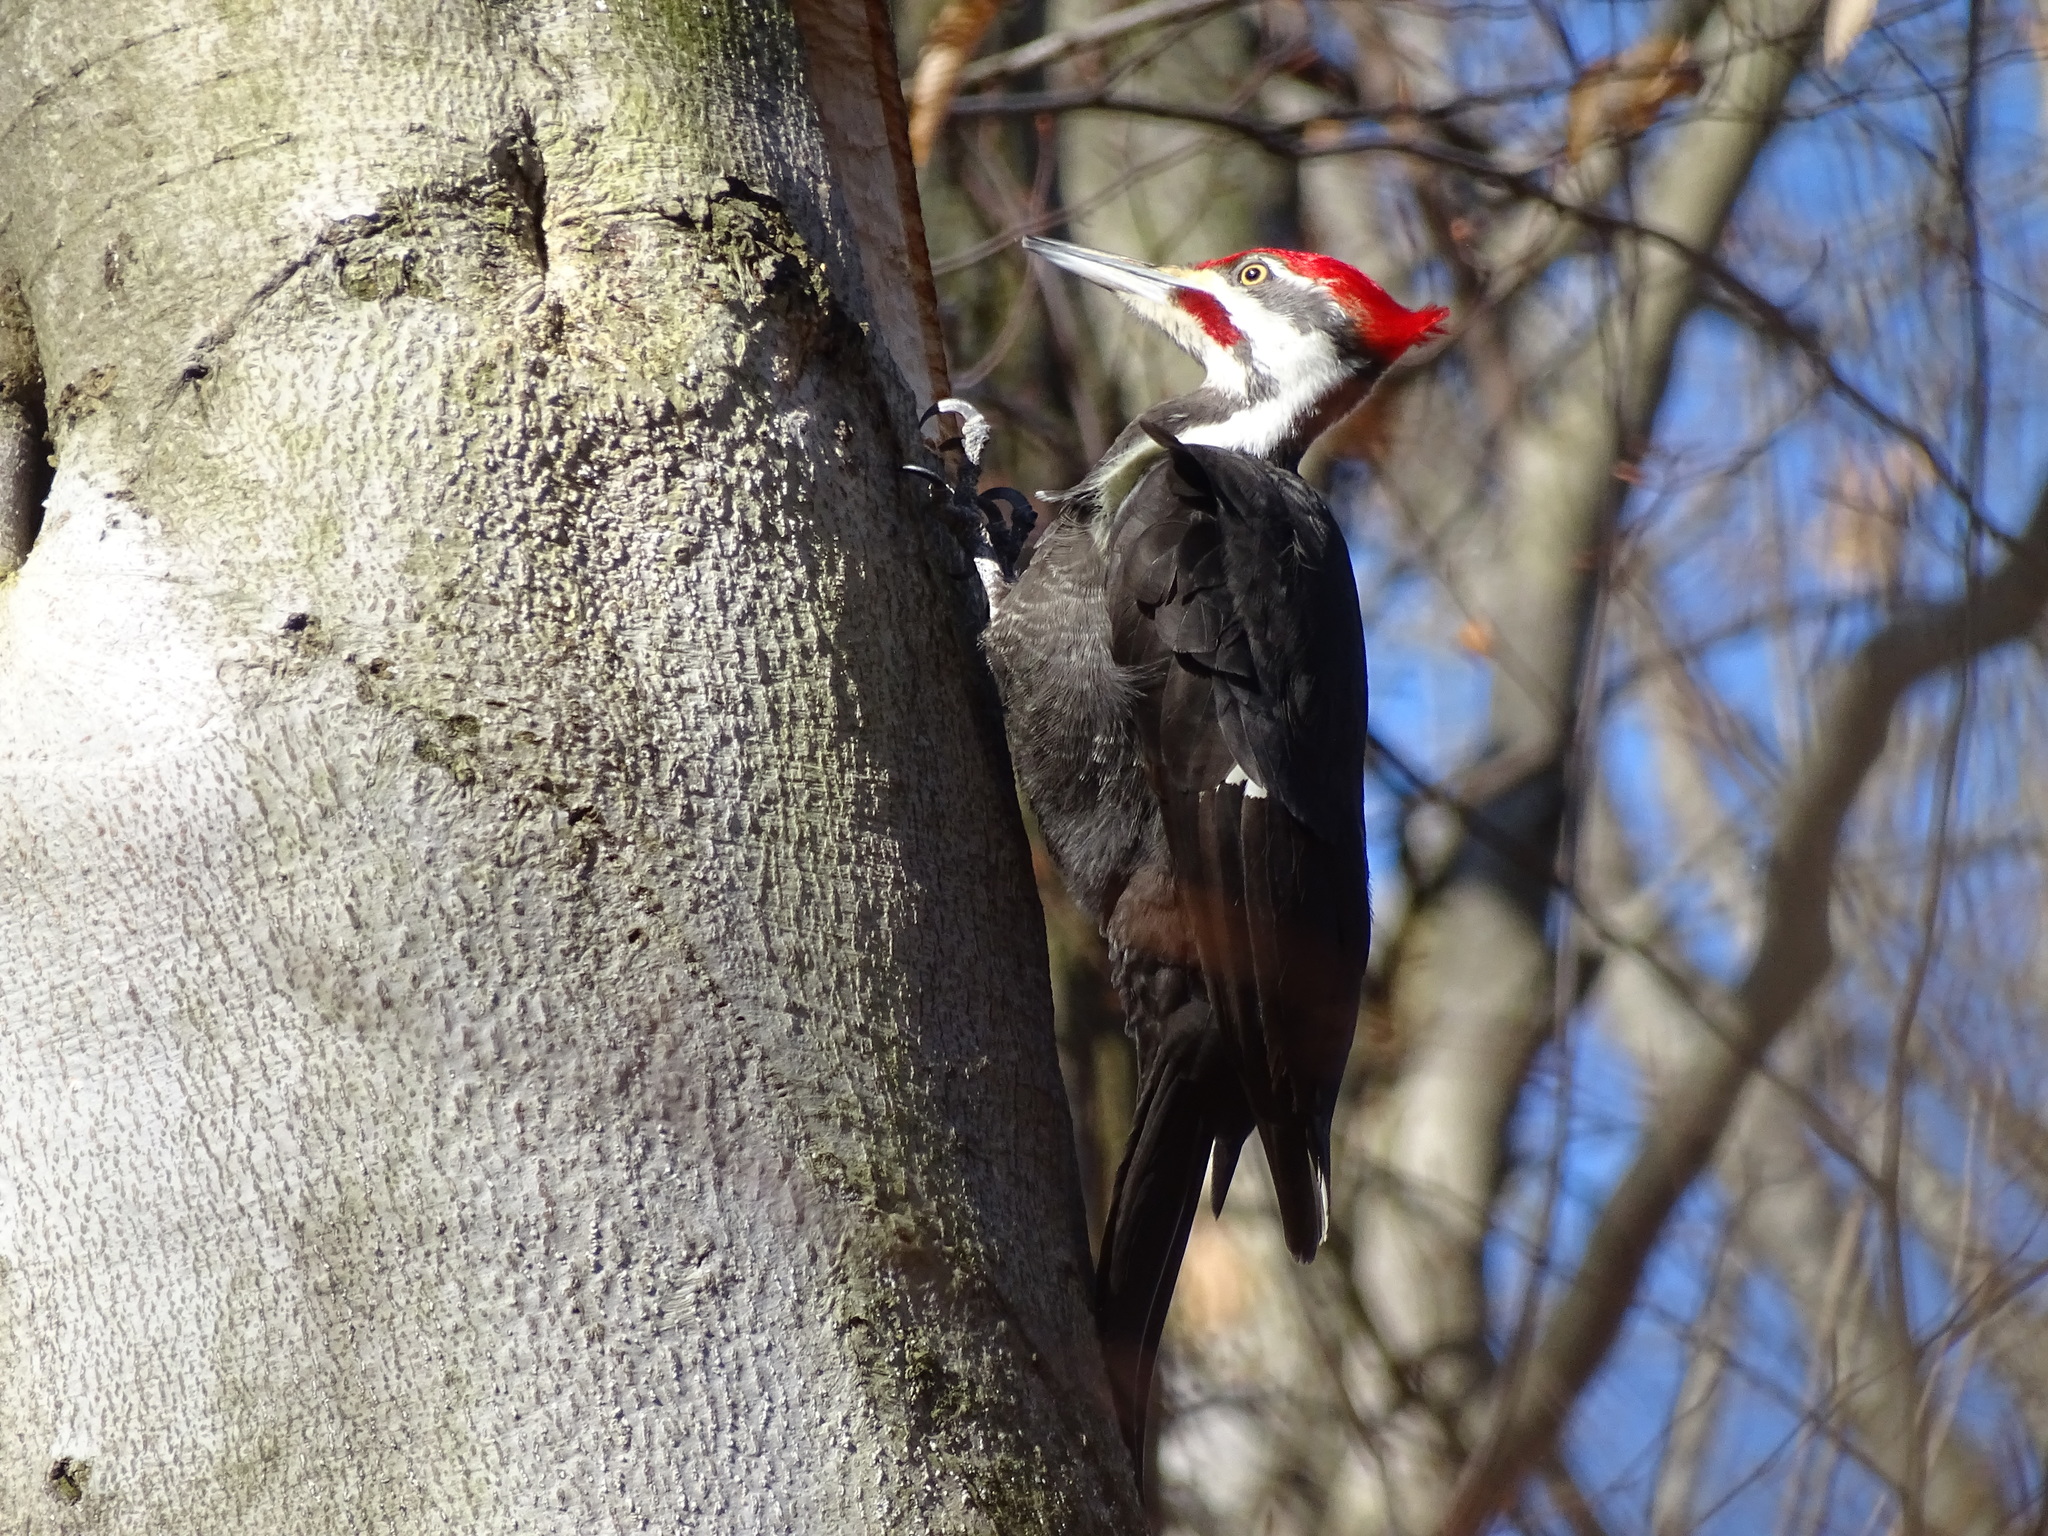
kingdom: Animalia
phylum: Chordata
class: Aves
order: Piciformes
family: Picidae
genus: Dryocopus
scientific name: Dryocopus pileatus
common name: Pileated woodpecker
